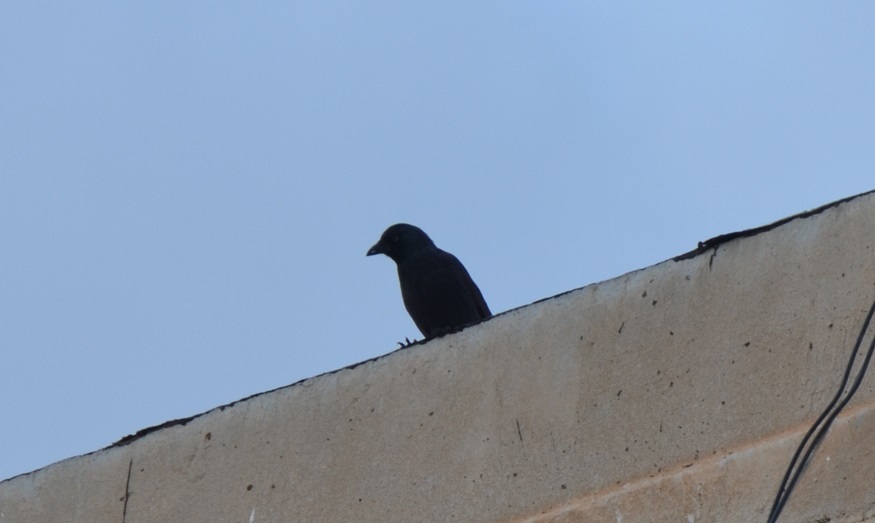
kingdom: Animalia
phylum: Chordata
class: Aves
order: Passeriformes
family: Corvidae
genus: Coloeus
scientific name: Coloeus monedula
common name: Western jackdaw
